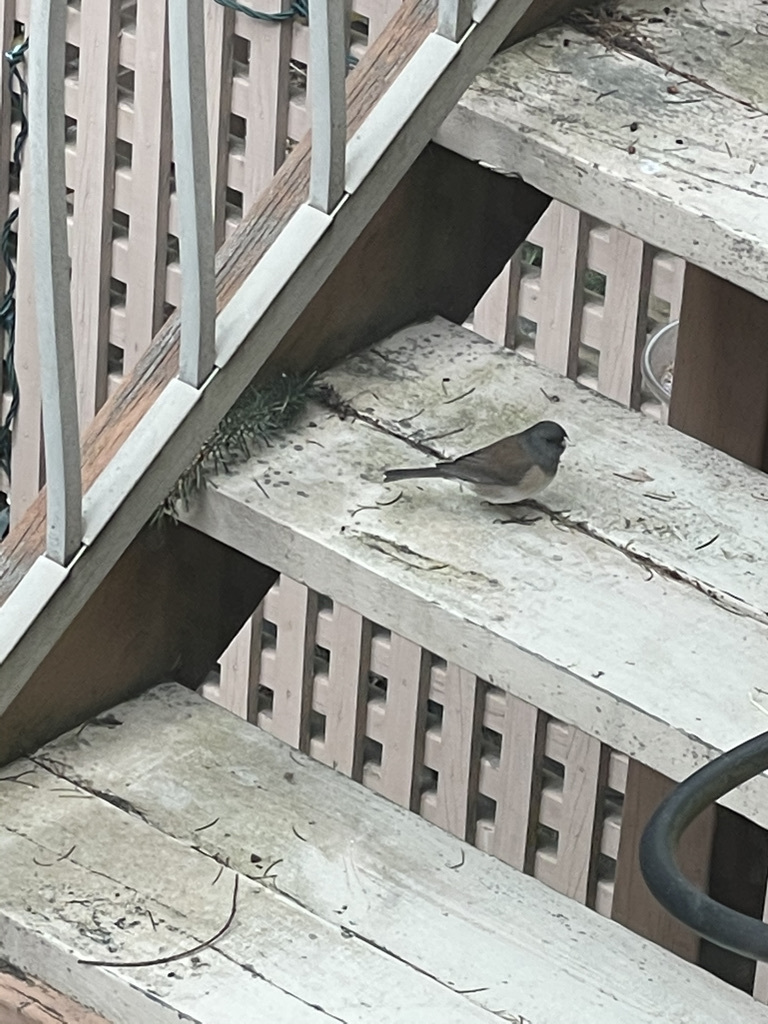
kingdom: Animalia
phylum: Chordata
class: Aves
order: Passeriformes
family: Passerellidae
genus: Junco
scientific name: Junco hyemalis
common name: Dark-eyed junco
